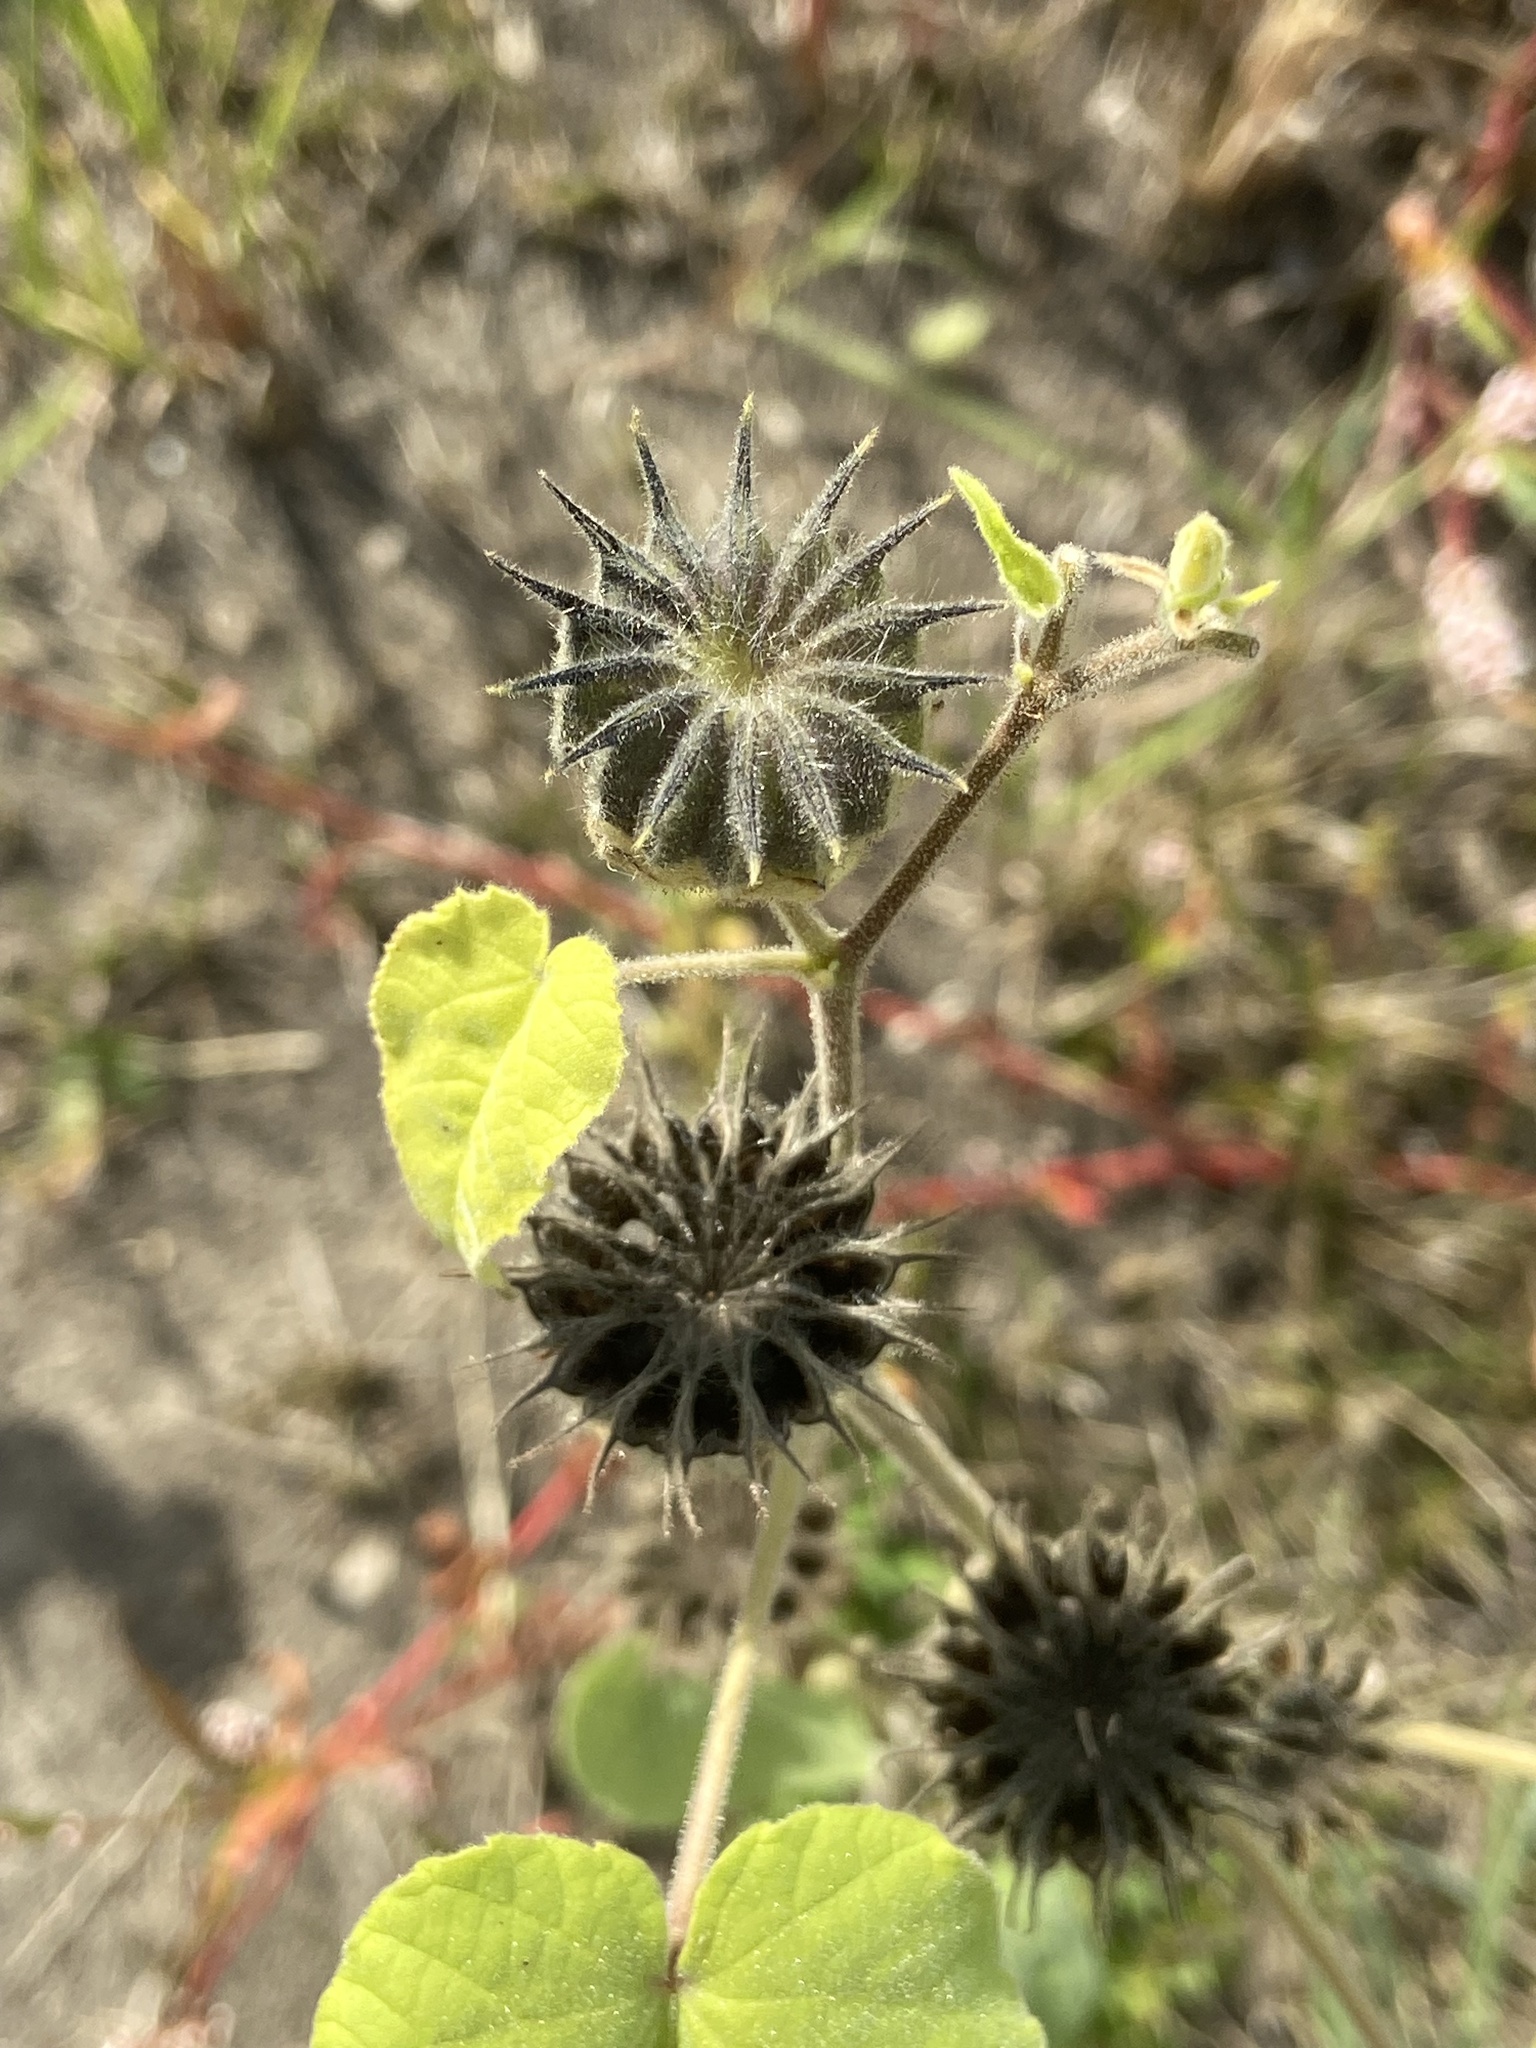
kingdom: Plantae
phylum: Tracheophyta
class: Magnoliopsida
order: Malvales
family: Malvaceae
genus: Abutilon
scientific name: Abutilon theophrasti
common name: Velvetleaf
